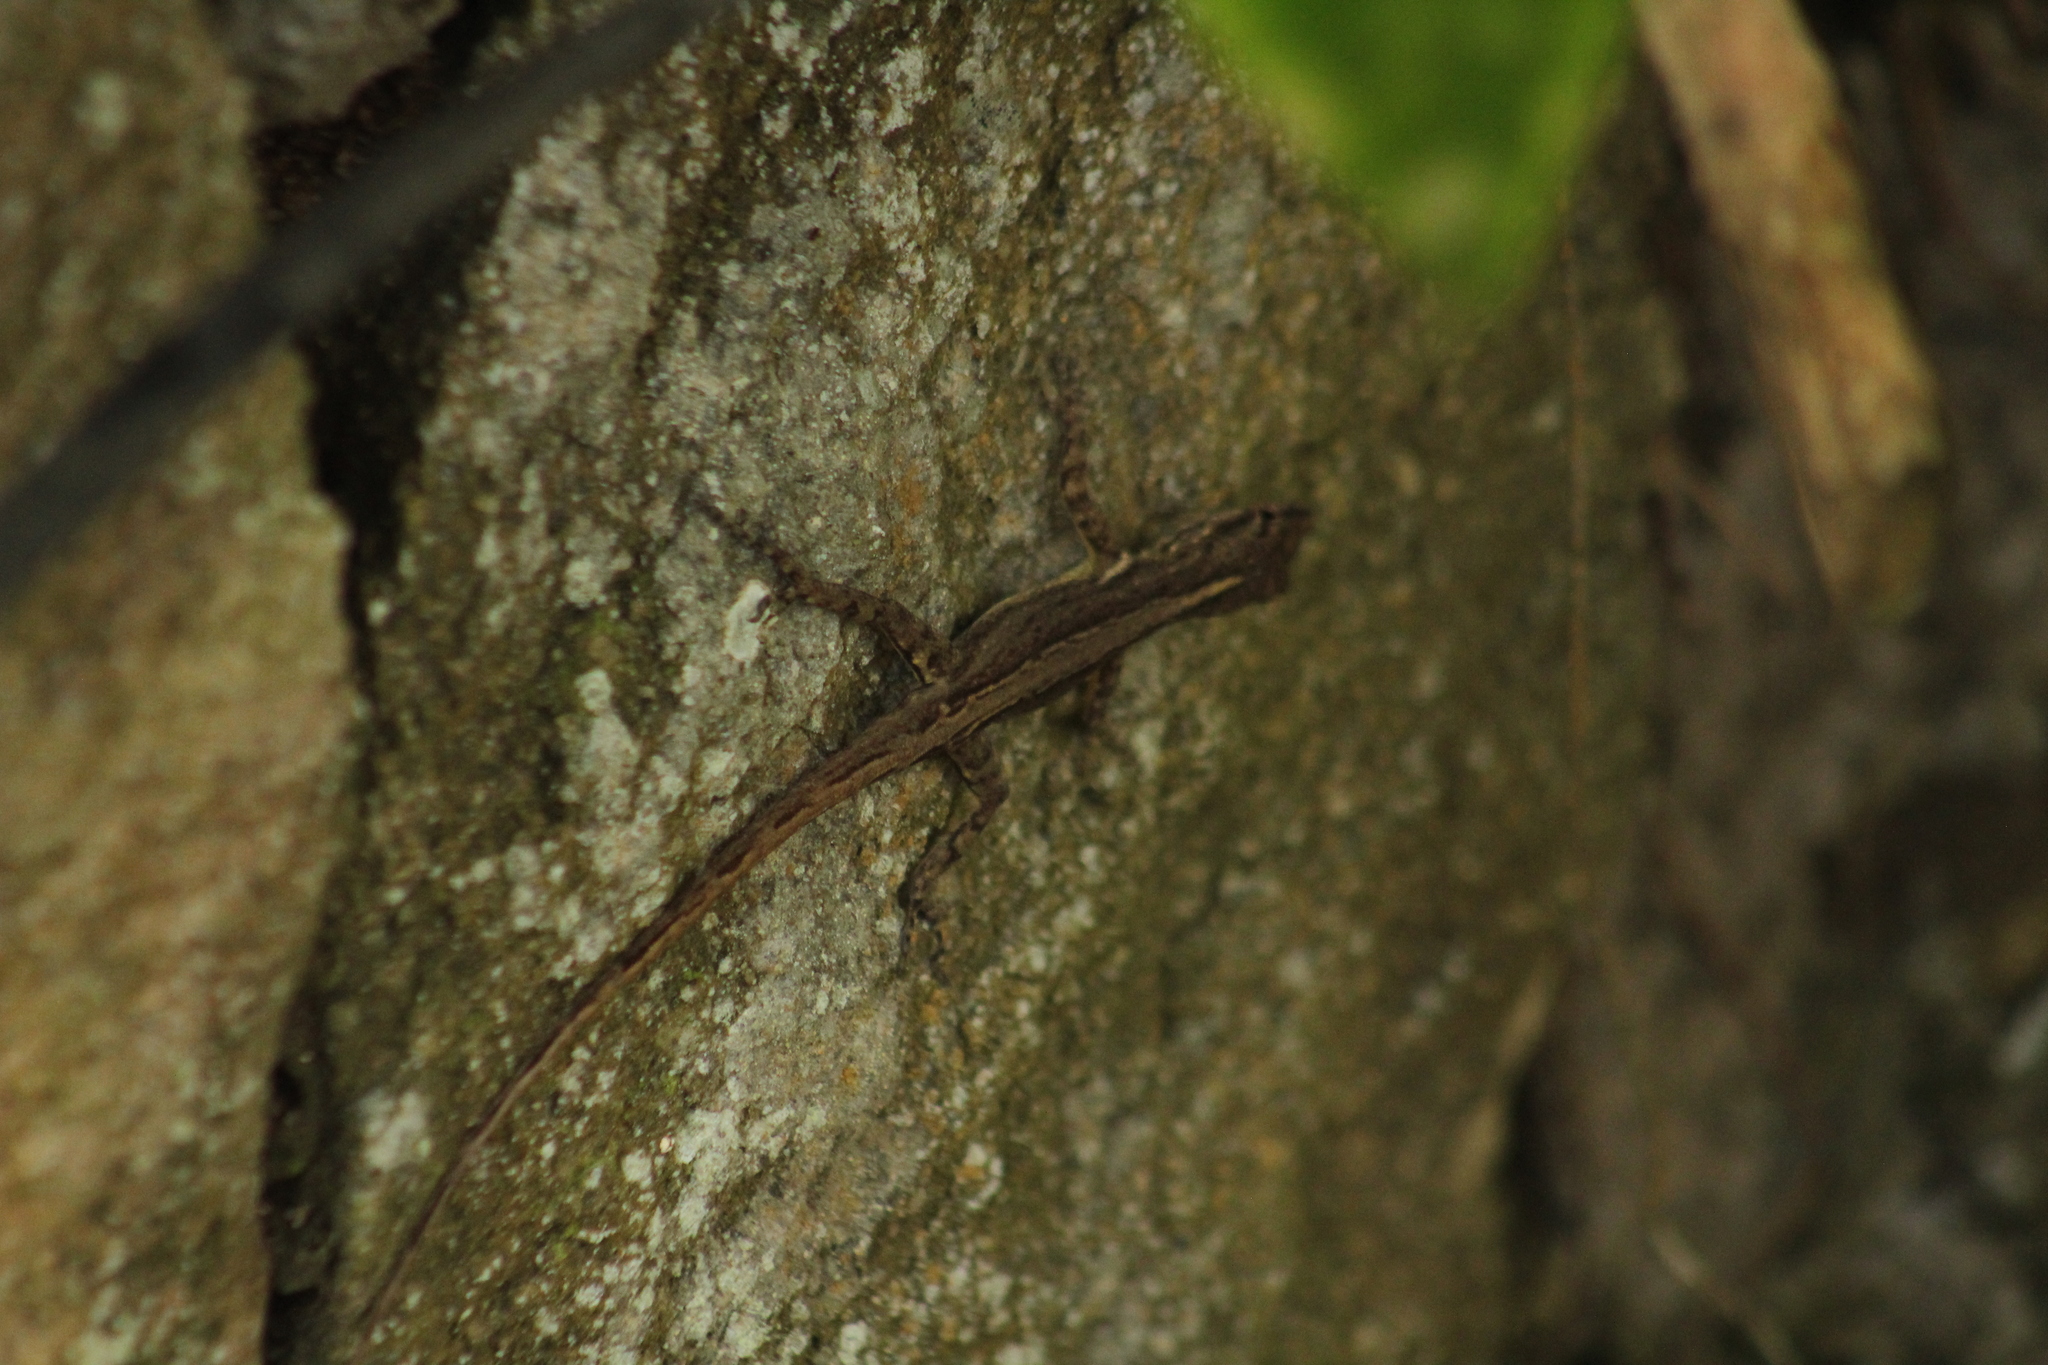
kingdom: Animalia
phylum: Chordata
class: Squamata
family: Dactyloidae
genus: Anolis
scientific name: Anolis sabanus
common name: Saba anole
